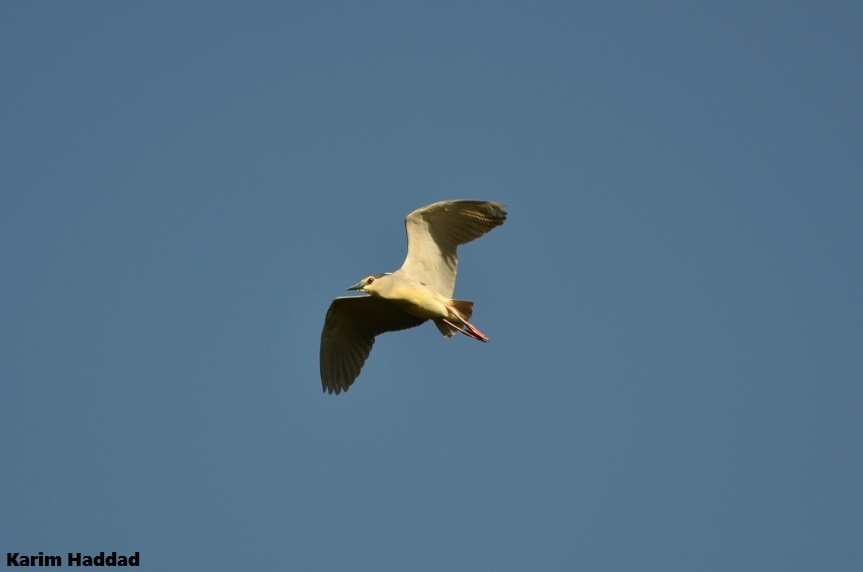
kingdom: Animalia
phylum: Chordata
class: Aves
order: Pelecaniformes
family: Ardeidae
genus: Nycticorax
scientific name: Nycticorax nycticorax
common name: Black-crowned night heron
